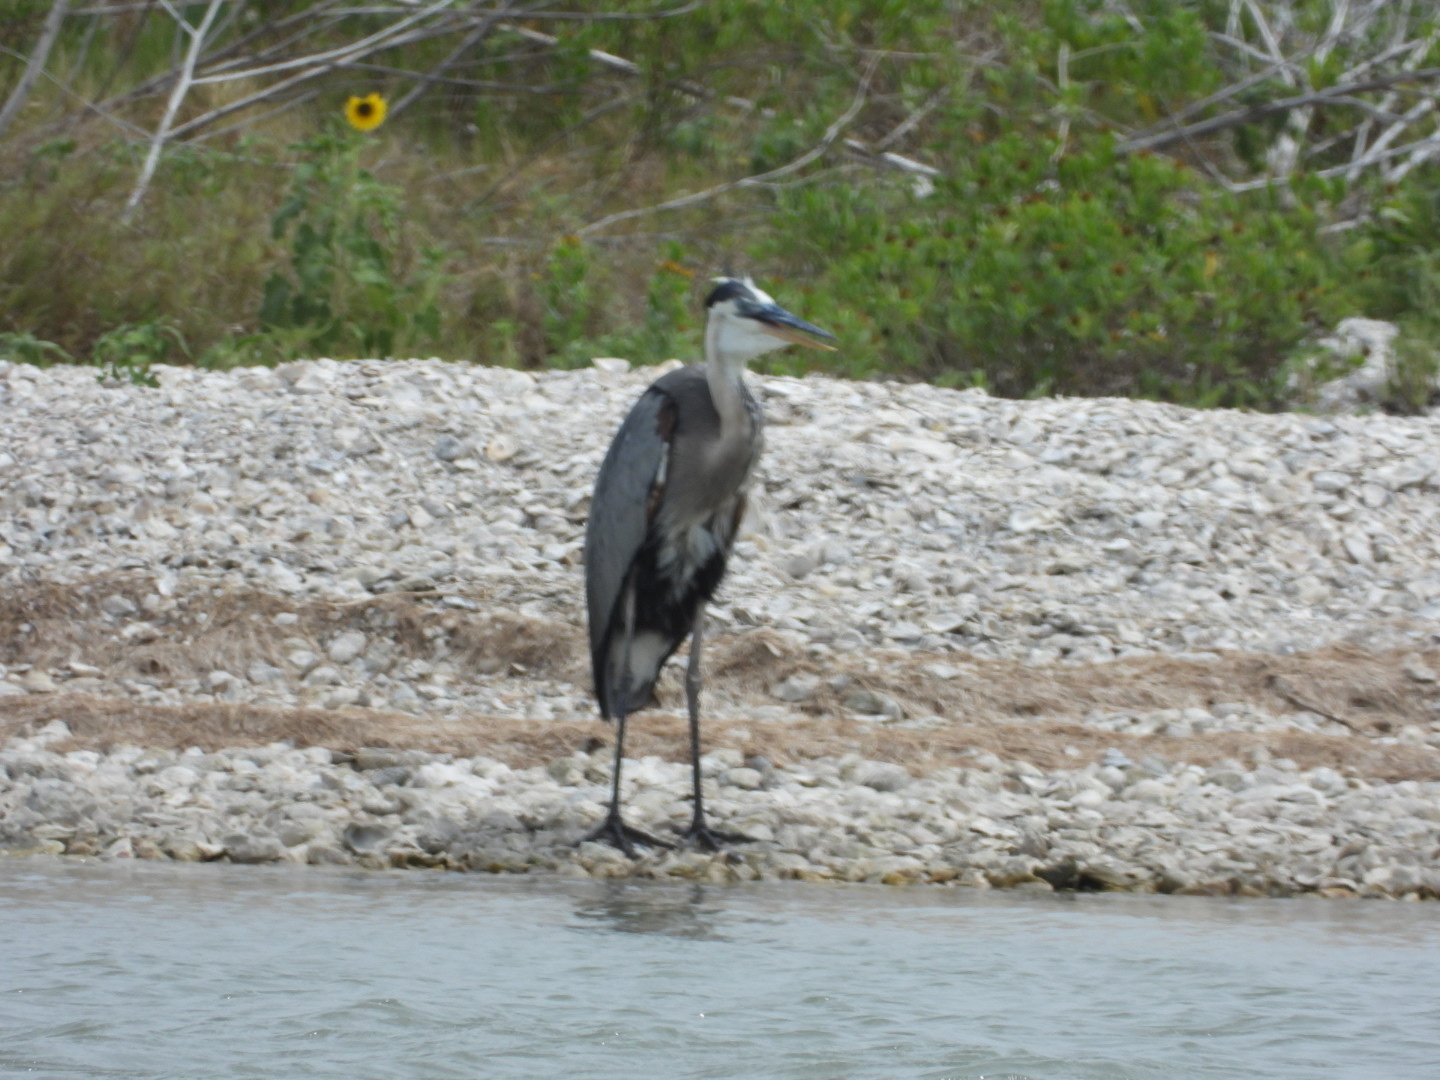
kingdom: Animalia
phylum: Chordata
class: Aves
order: Pelecaniformes
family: Ardeidae
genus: Ardea
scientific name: Ardea herodias
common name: Great blue heron
